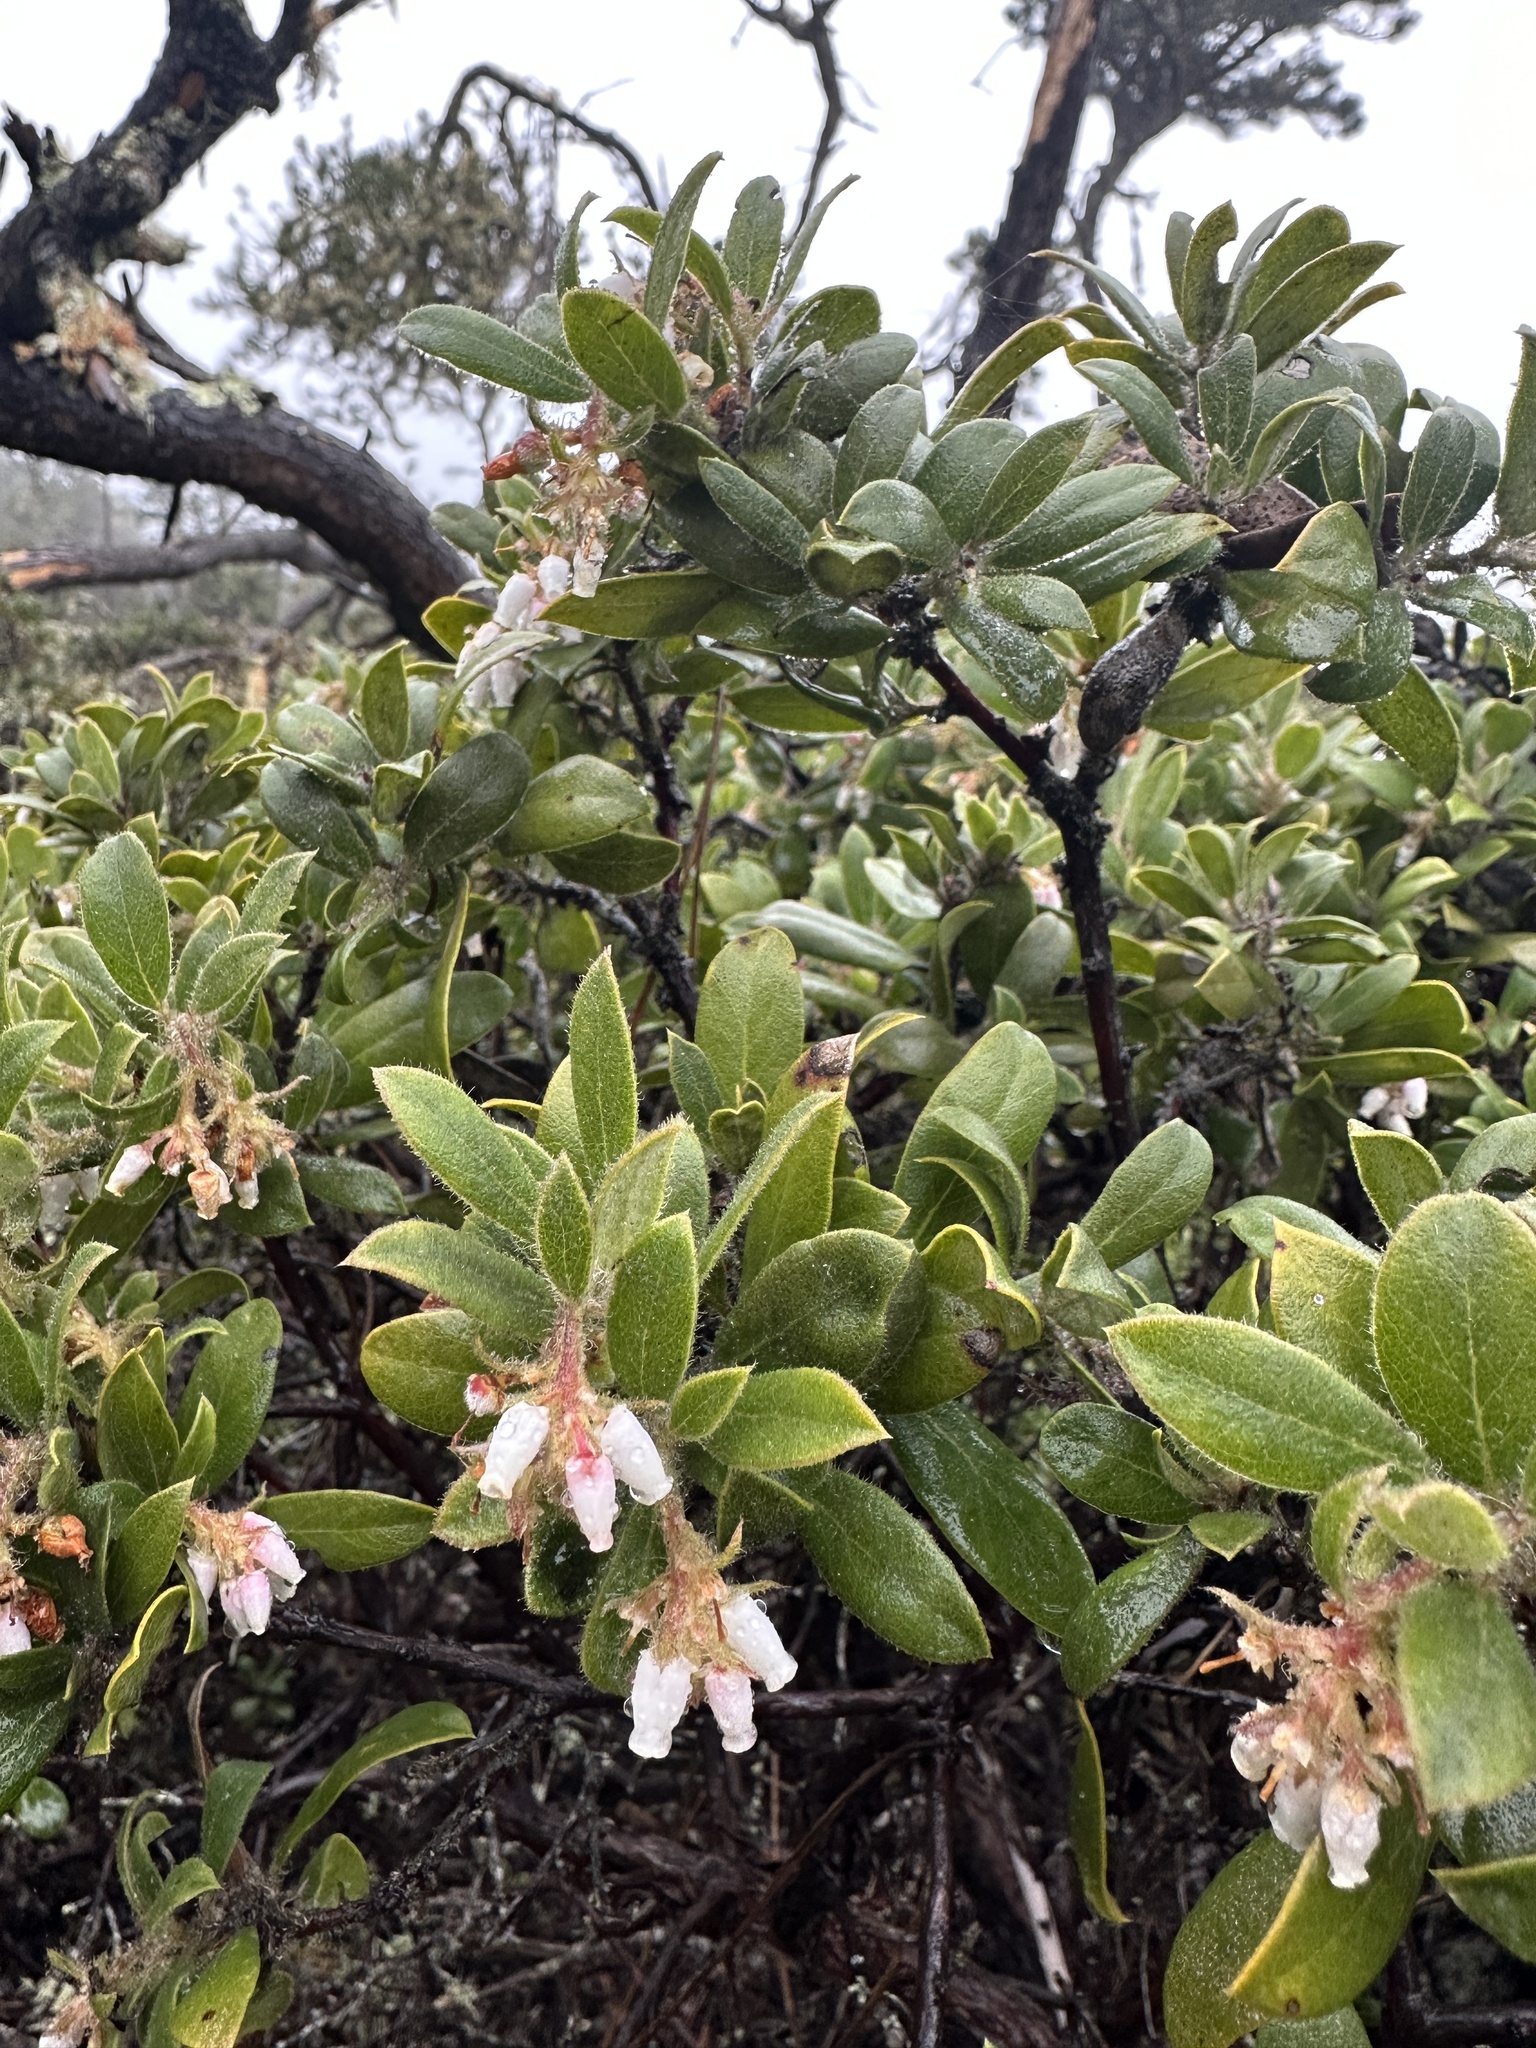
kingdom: Plantae
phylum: Tracheophyta
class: Magnoliopsida
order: Ericales
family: Ericaceae
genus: Arctostaphylos
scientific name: Arctostaphylos tomentosa
